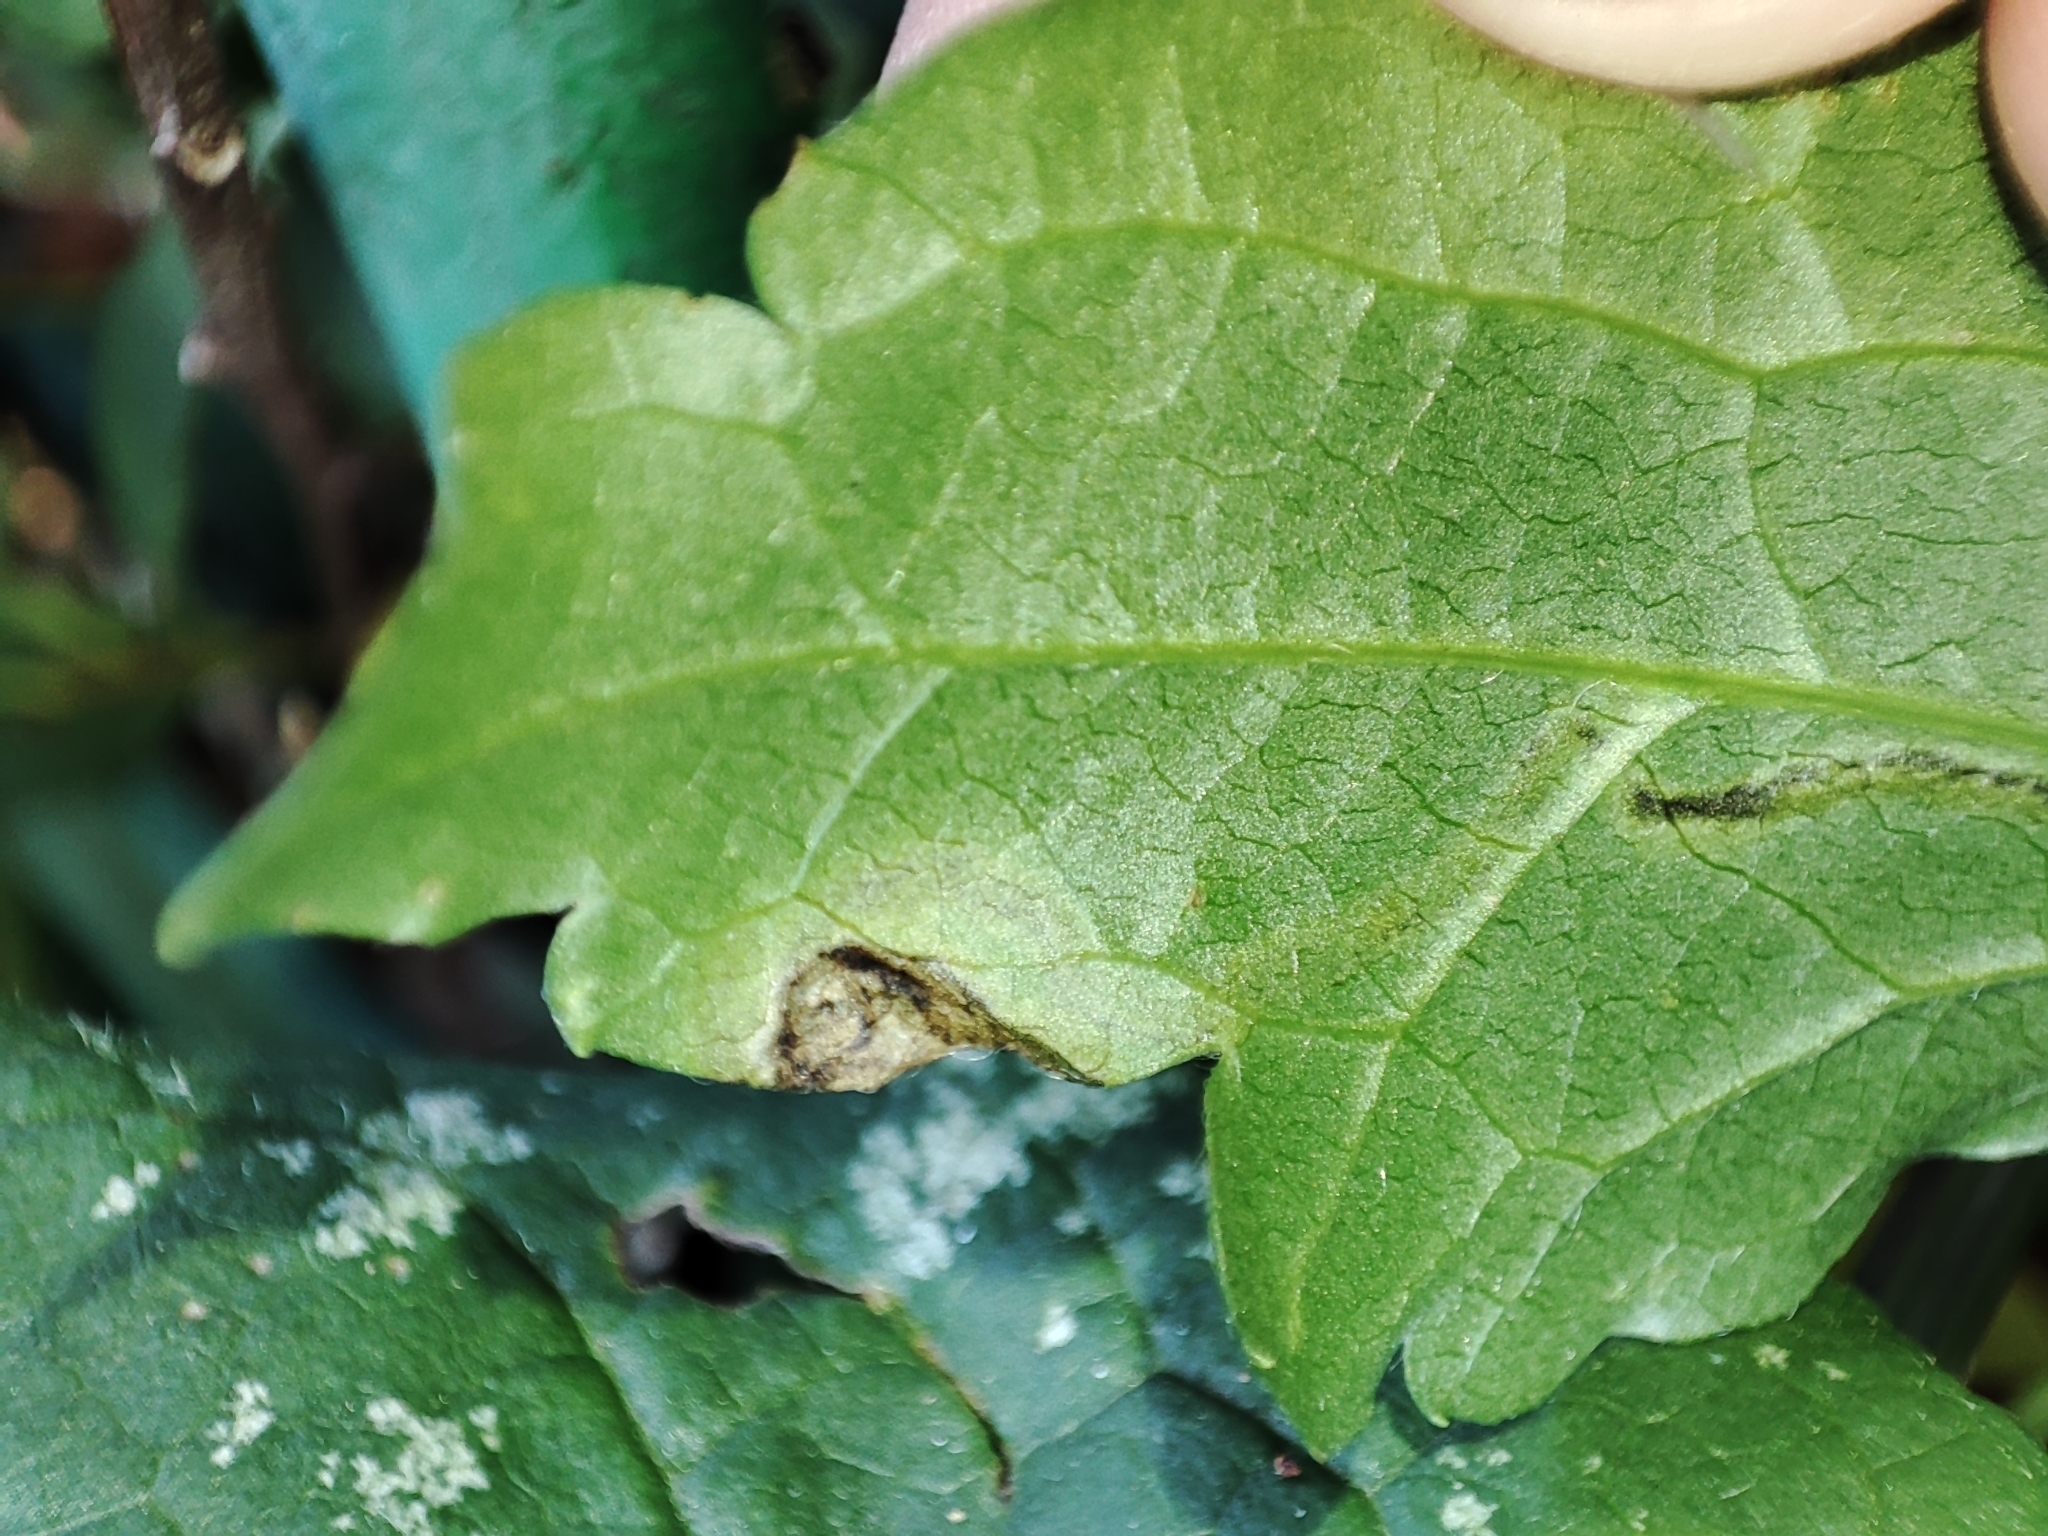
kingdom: Plantae
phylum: Tracheophyta
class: Magnoliopsida
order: Ranunculales
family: Ranunculaceae
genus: Clematis
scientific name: Clematis vitalba
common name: Evergreen clematis
